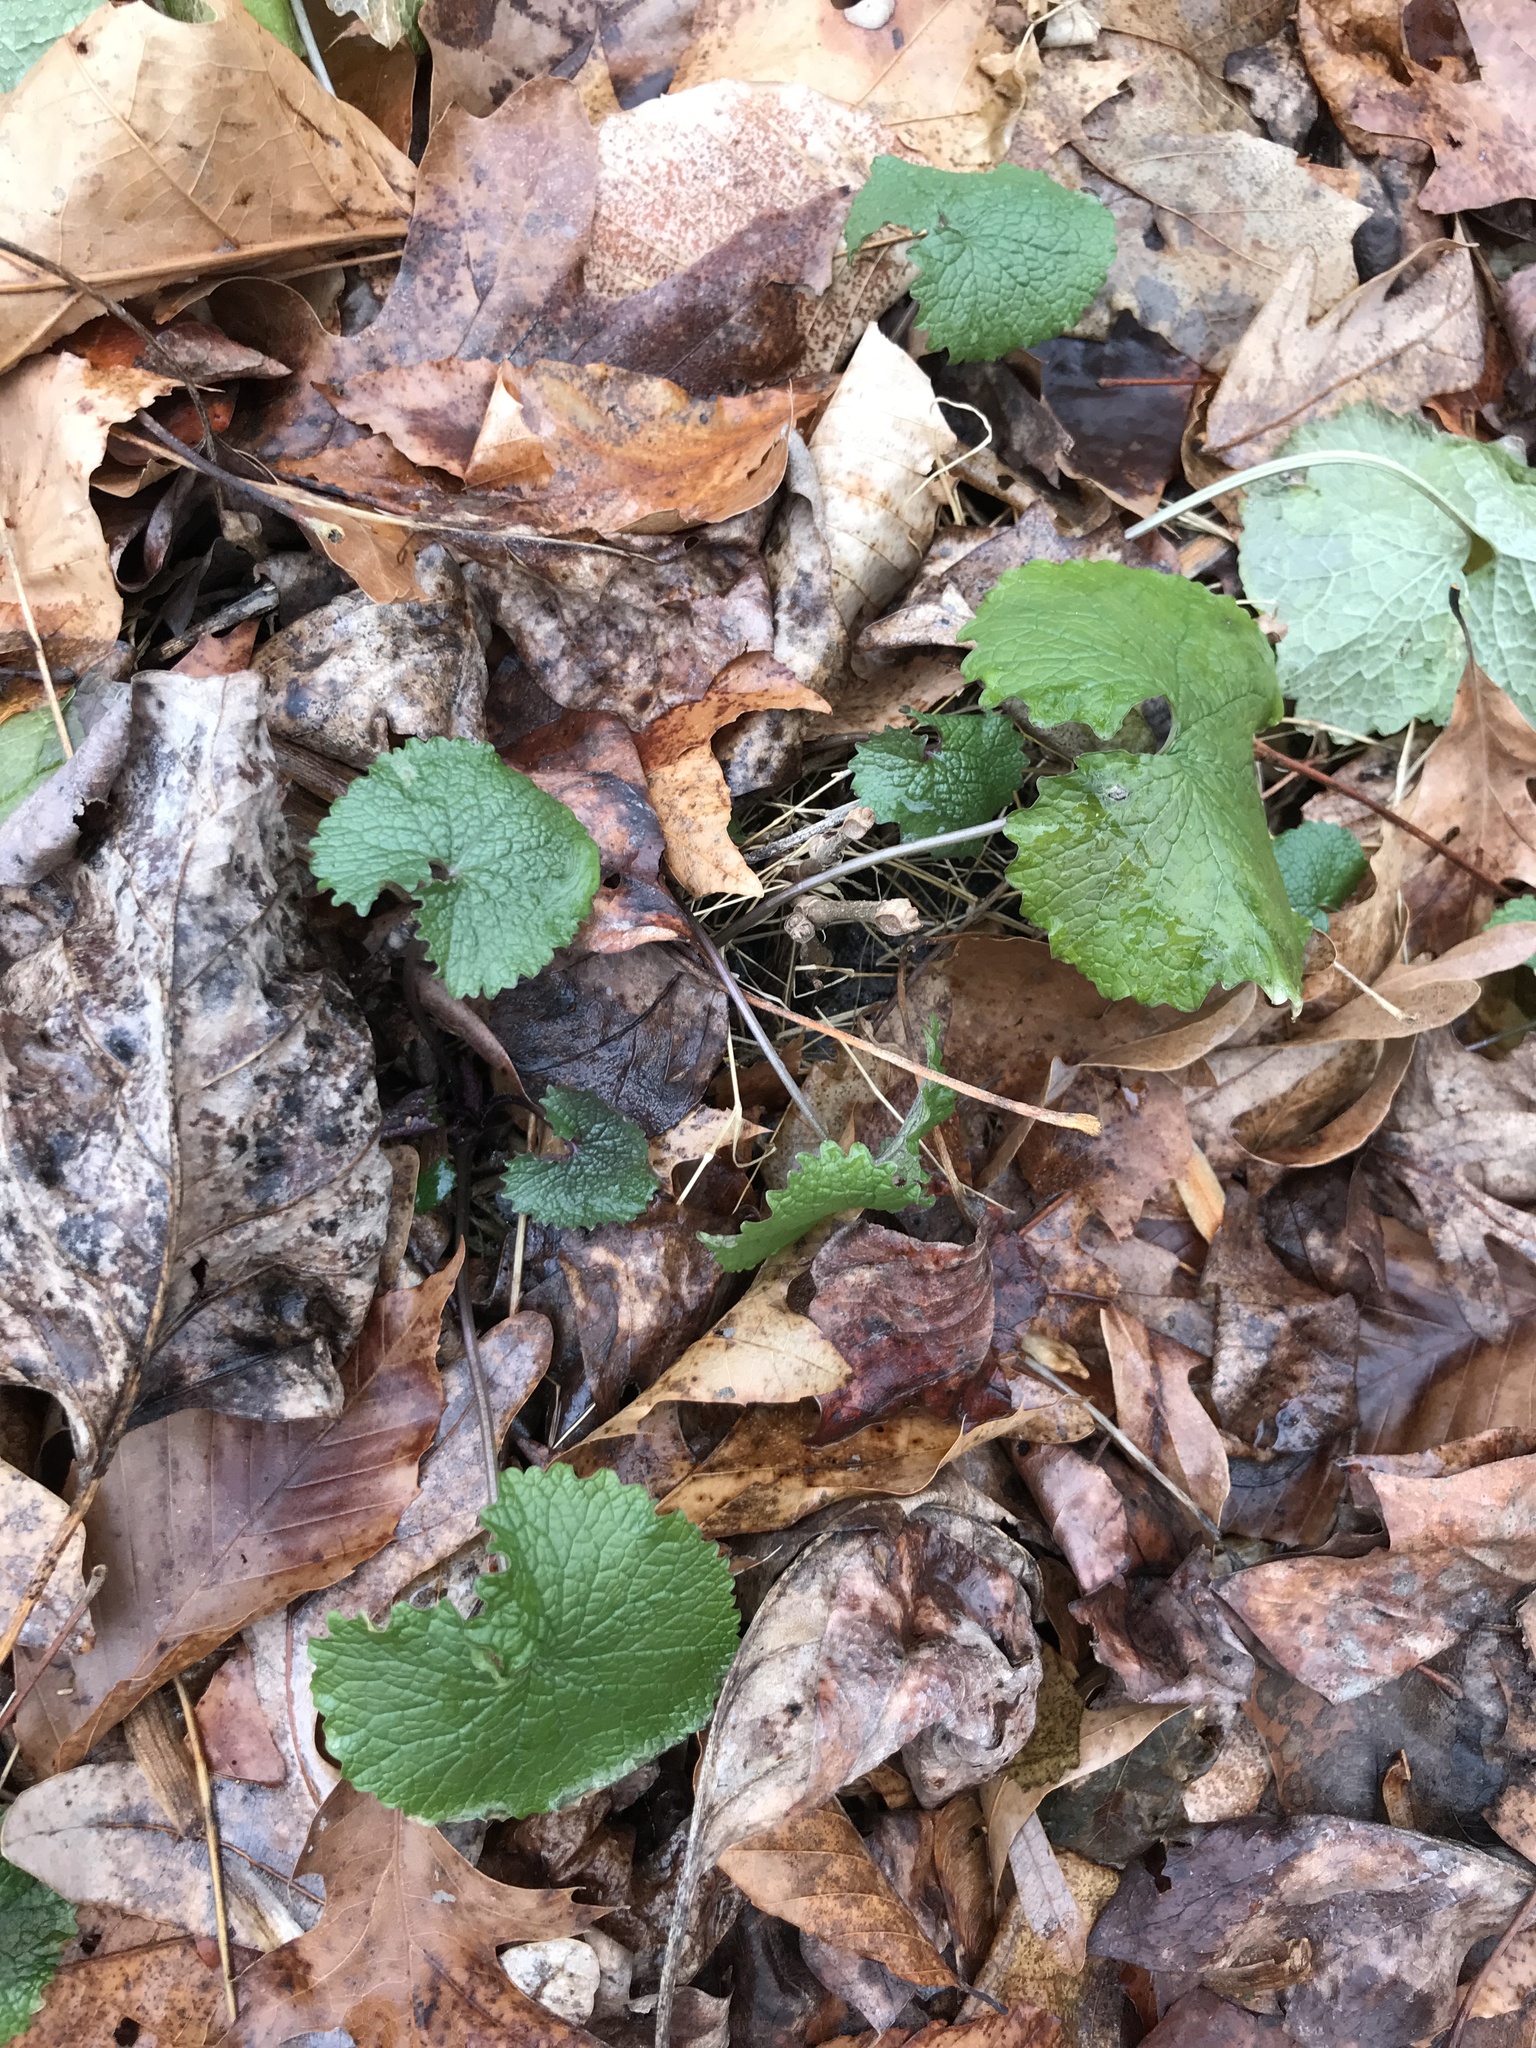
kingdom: Plantae
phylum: Tracheophyta
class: Magnoliopsida
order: Brassicales
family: Brassicaceae
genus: Alliaria
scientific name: Alliaria petiolata
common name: Garlic mustard
